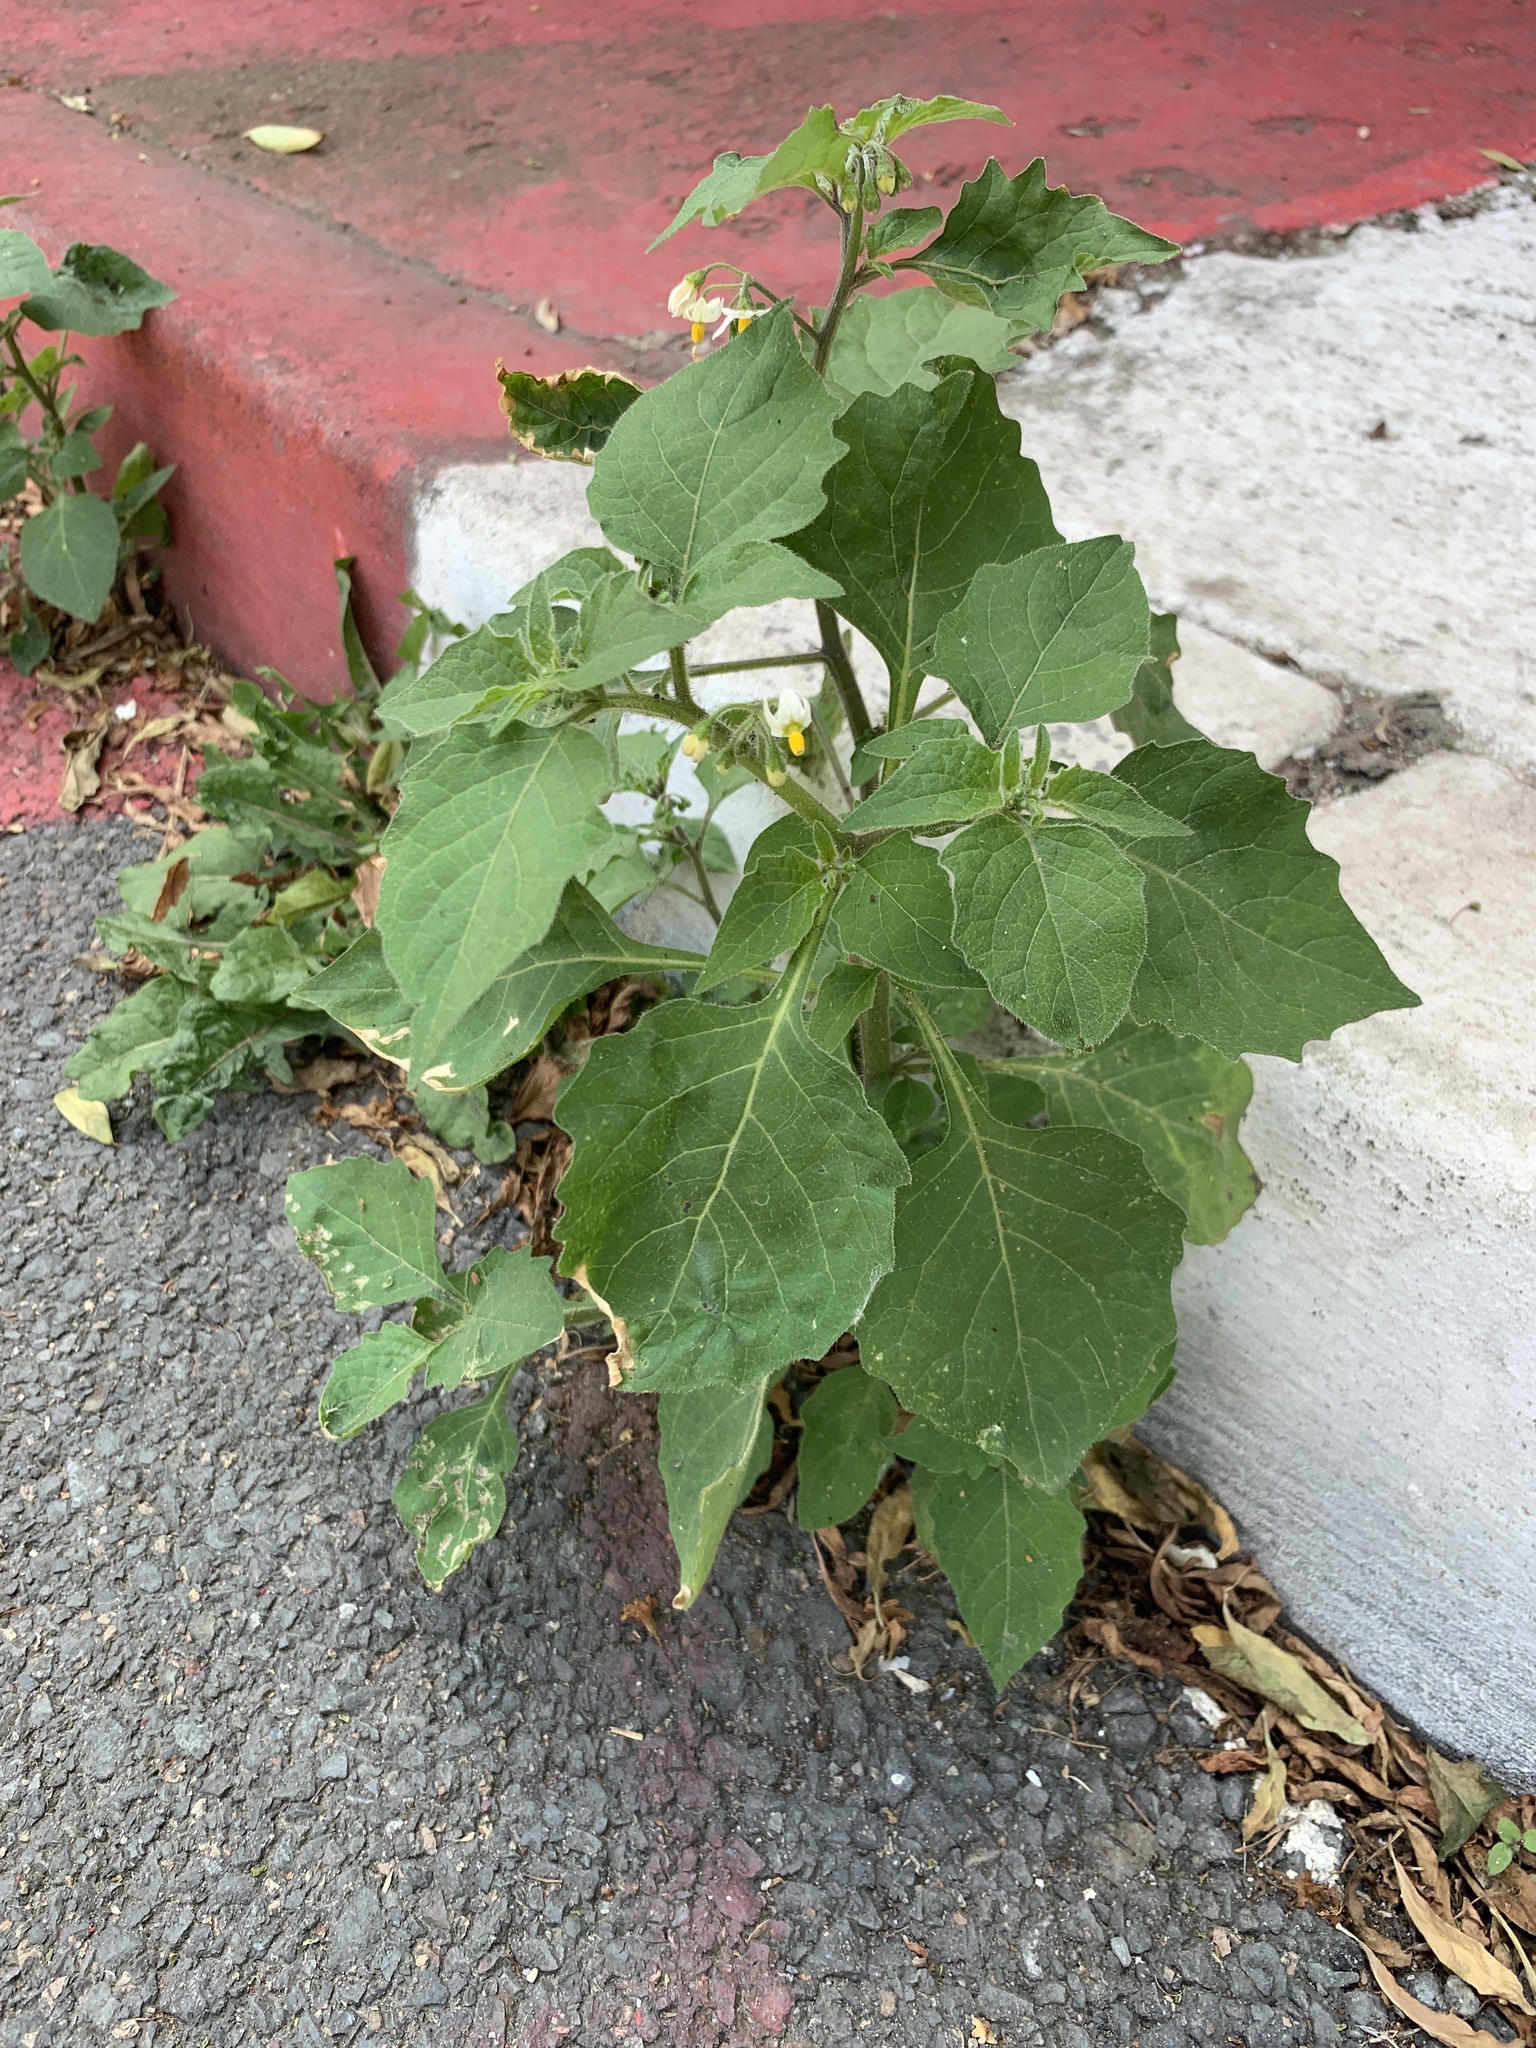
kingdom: Plantae
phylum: Tracheophyta
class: Magnoliopsida
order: Solanales
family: Solanaceae
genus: Solanum
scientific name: Solanum nigrum
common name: Black nightshade
